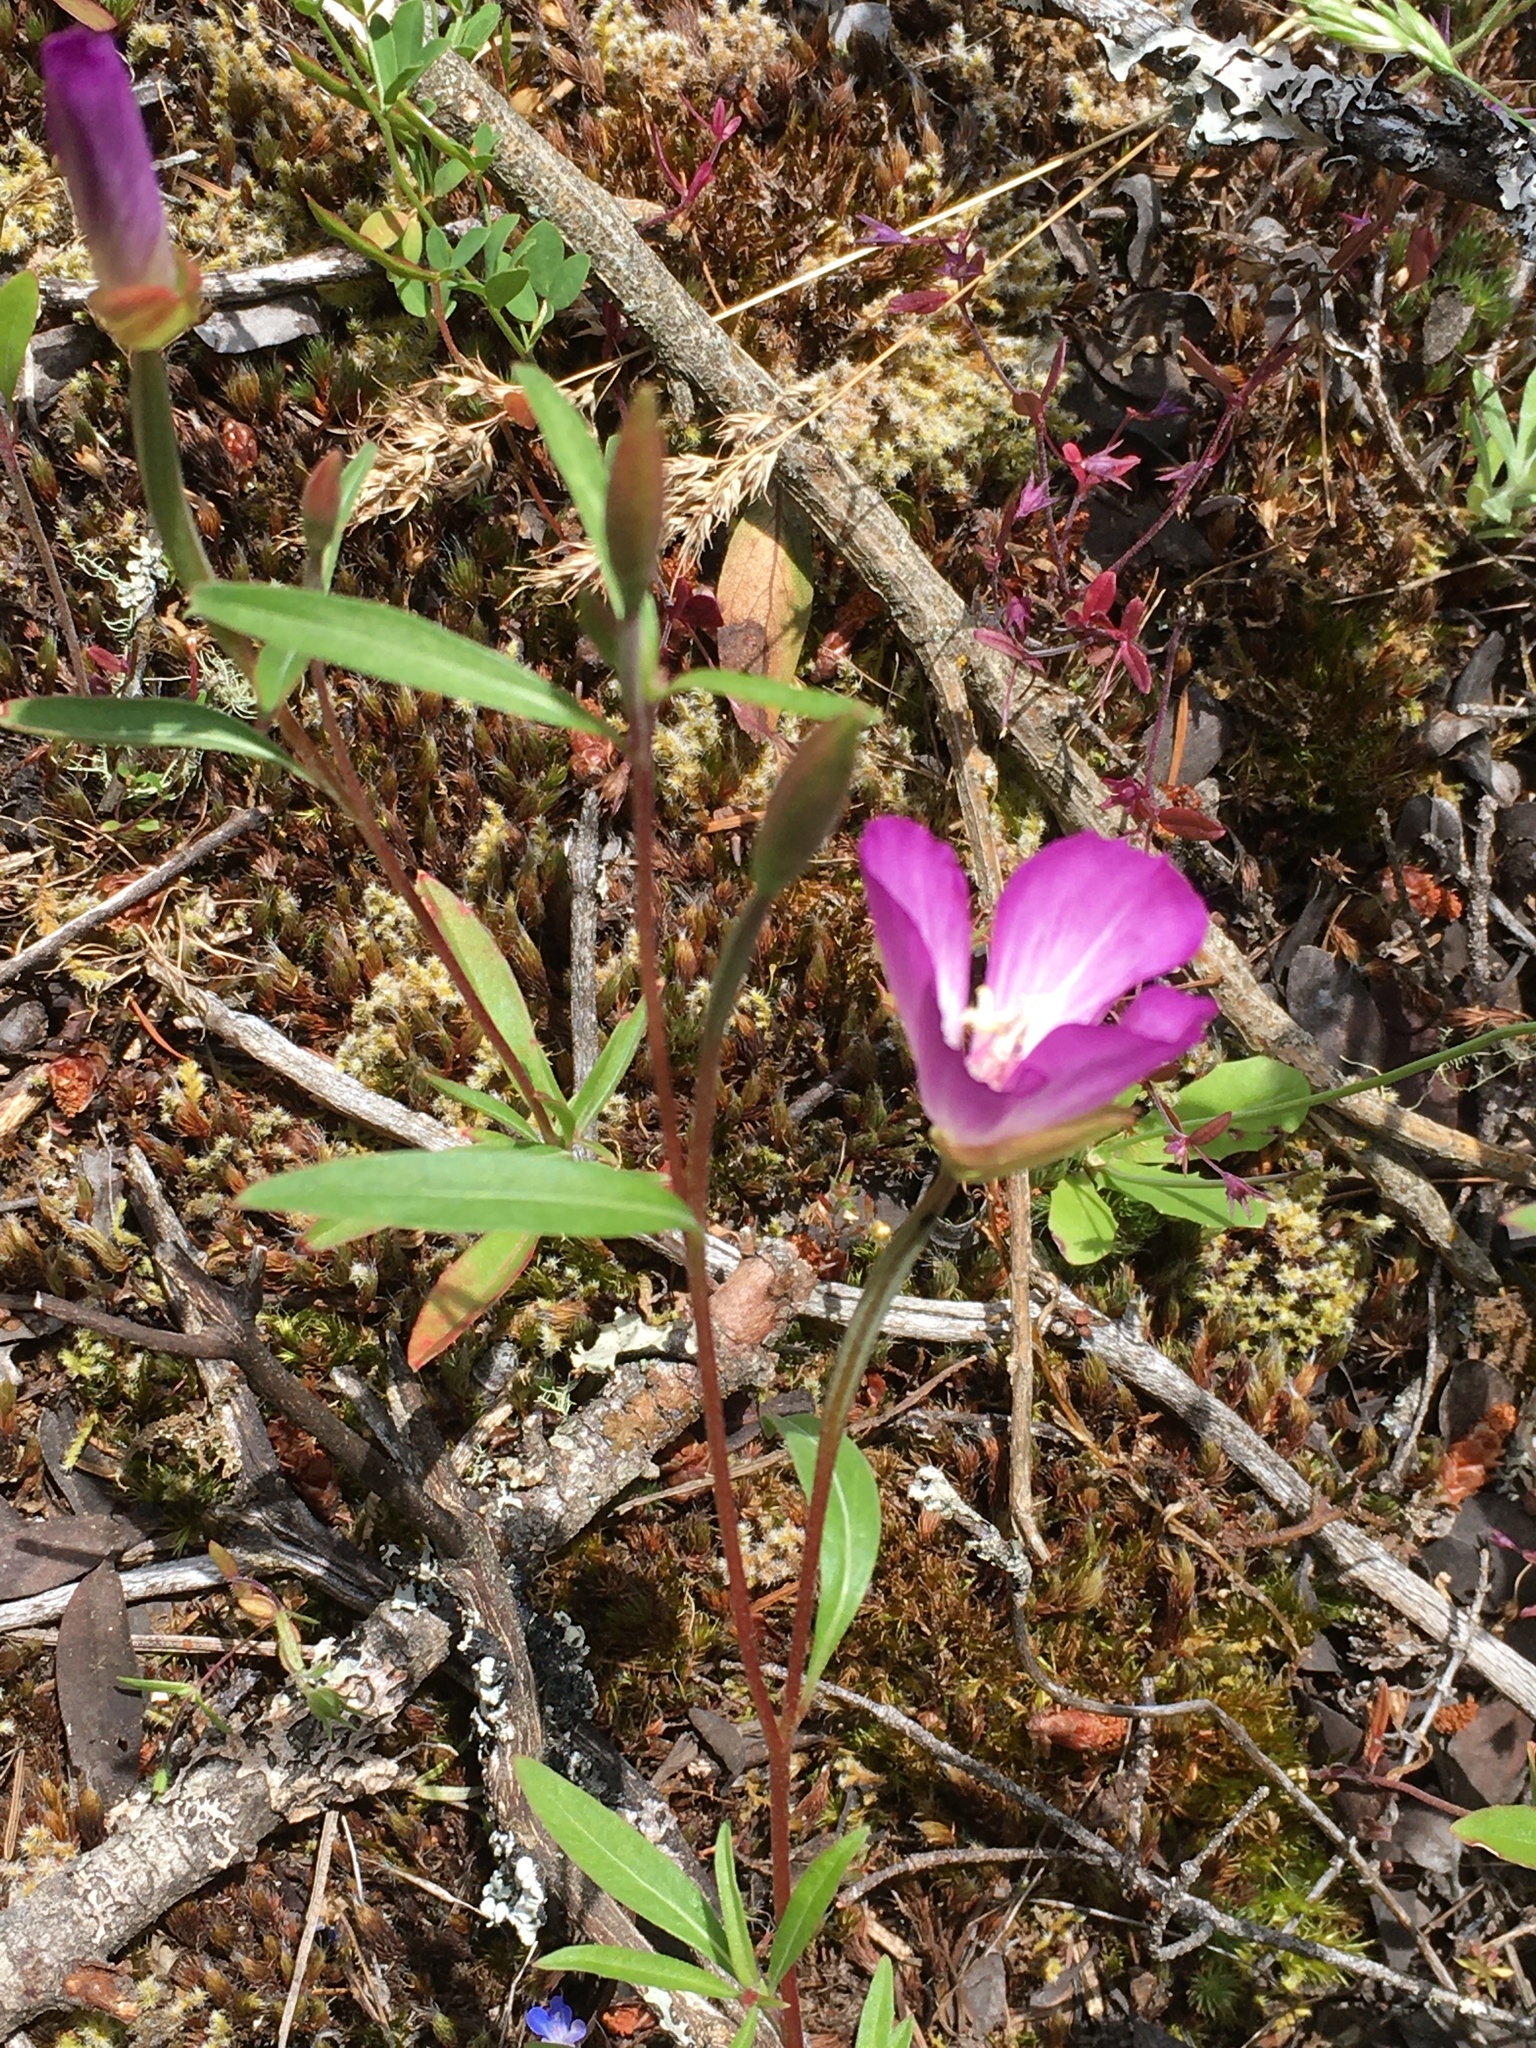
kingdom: Plantae
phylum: Tracheophyta
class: Magnoliopsida
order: Myrtales
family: Onagraceae
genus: Clarkia
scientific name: Clarkia amoena
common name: Godetia
